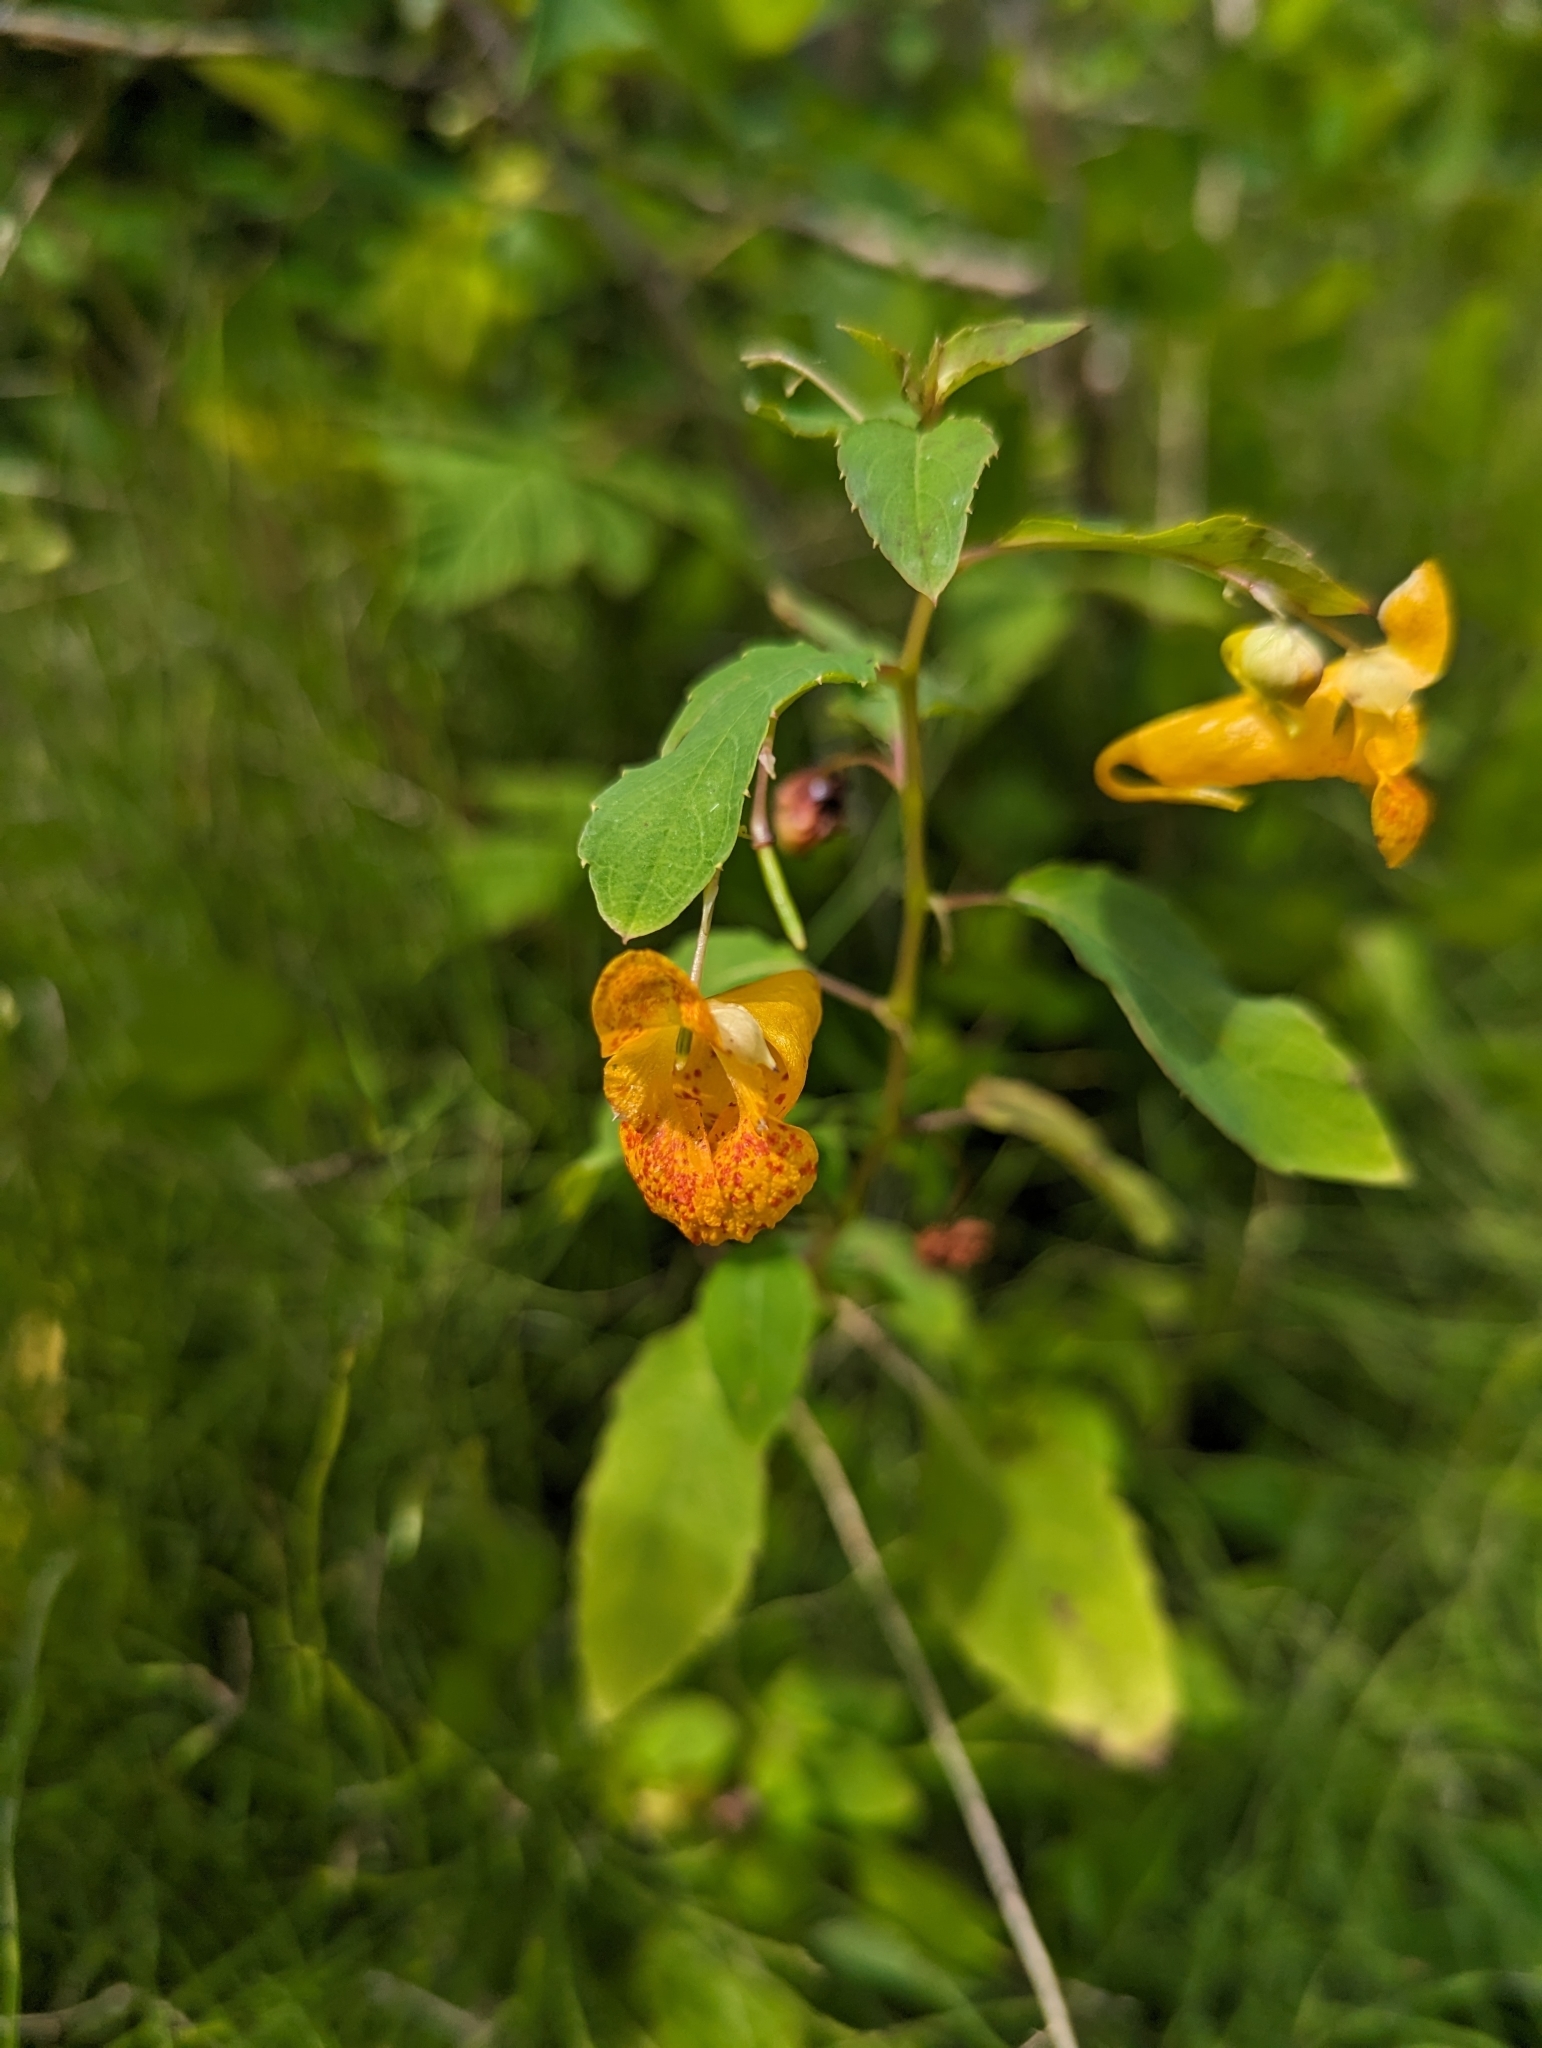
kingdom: Plantae
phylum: Tracheophyta
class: Magnoliopsida
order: Ericales
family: Balsaminaceae
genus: Impatiens
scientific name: Impatiens capensis
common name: Orange balsam
